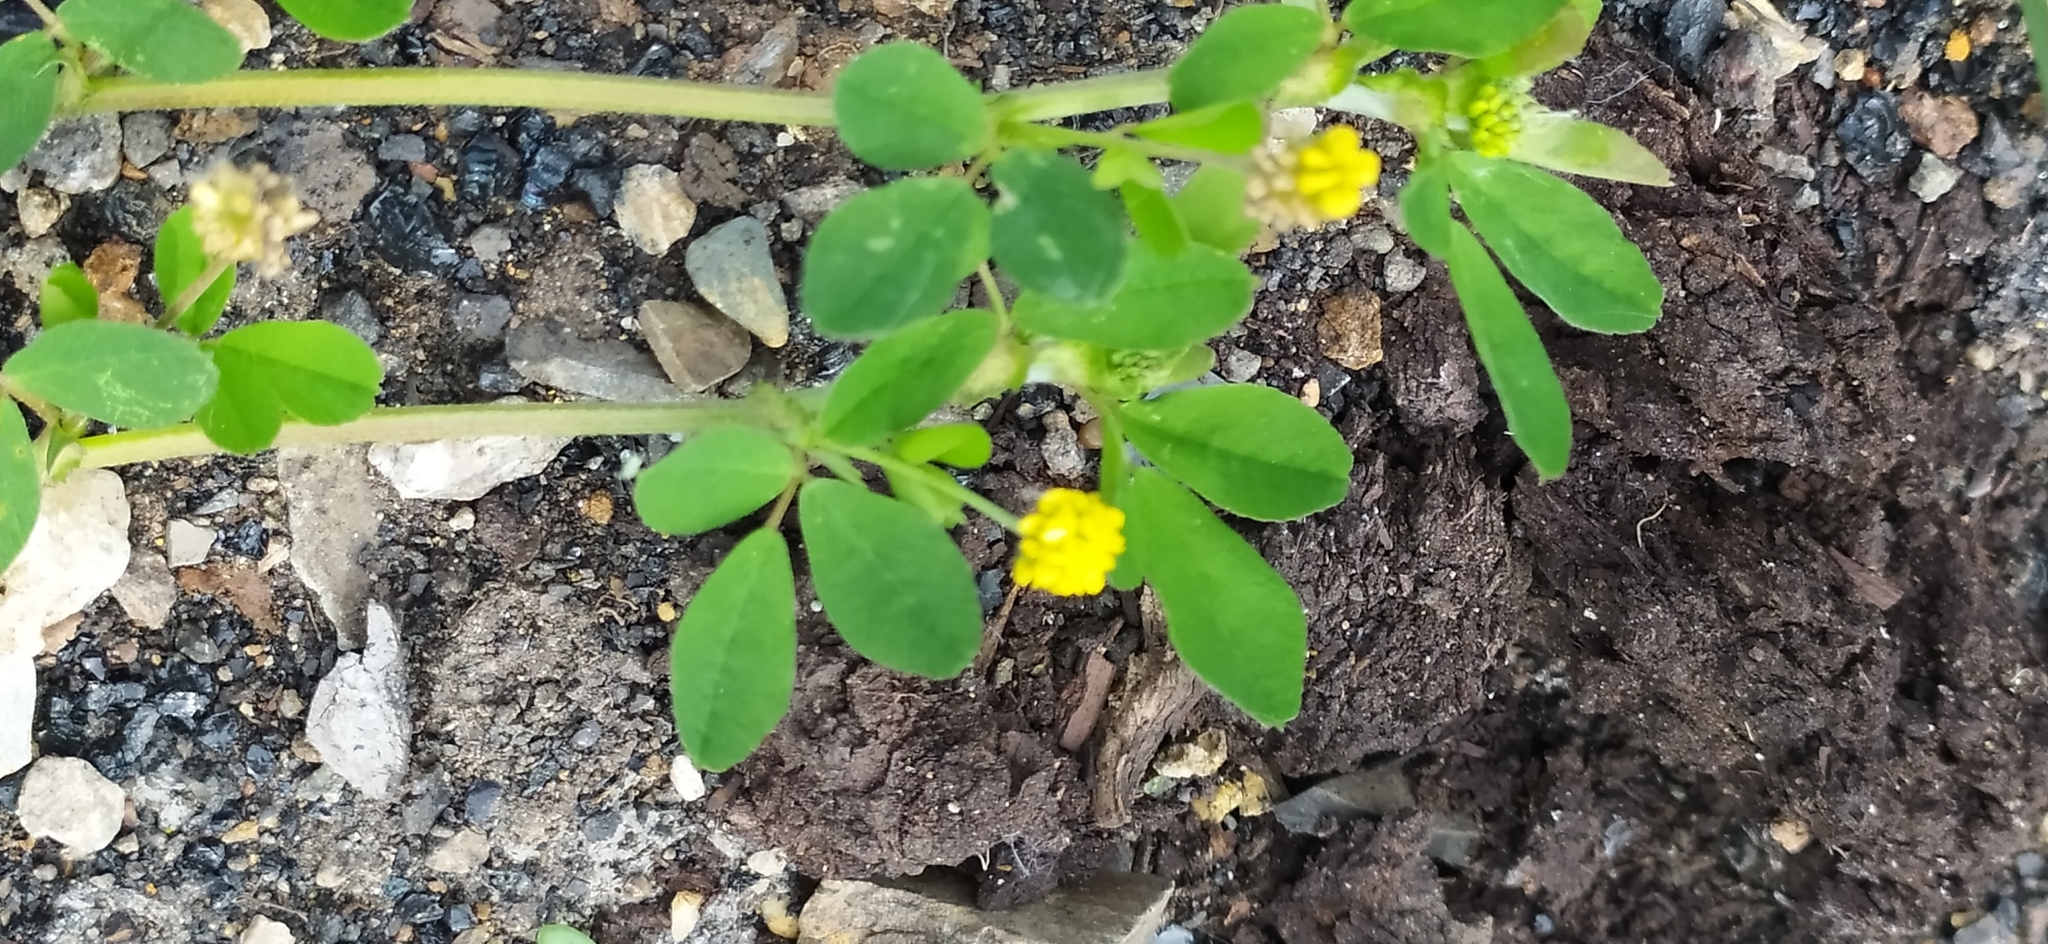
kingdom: Plantae
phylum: Tracheophyta
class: Magnoliopsida
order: Fabales
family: Fabaceae
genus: Medicago
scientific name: Medicago lupulina
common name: Black medick
